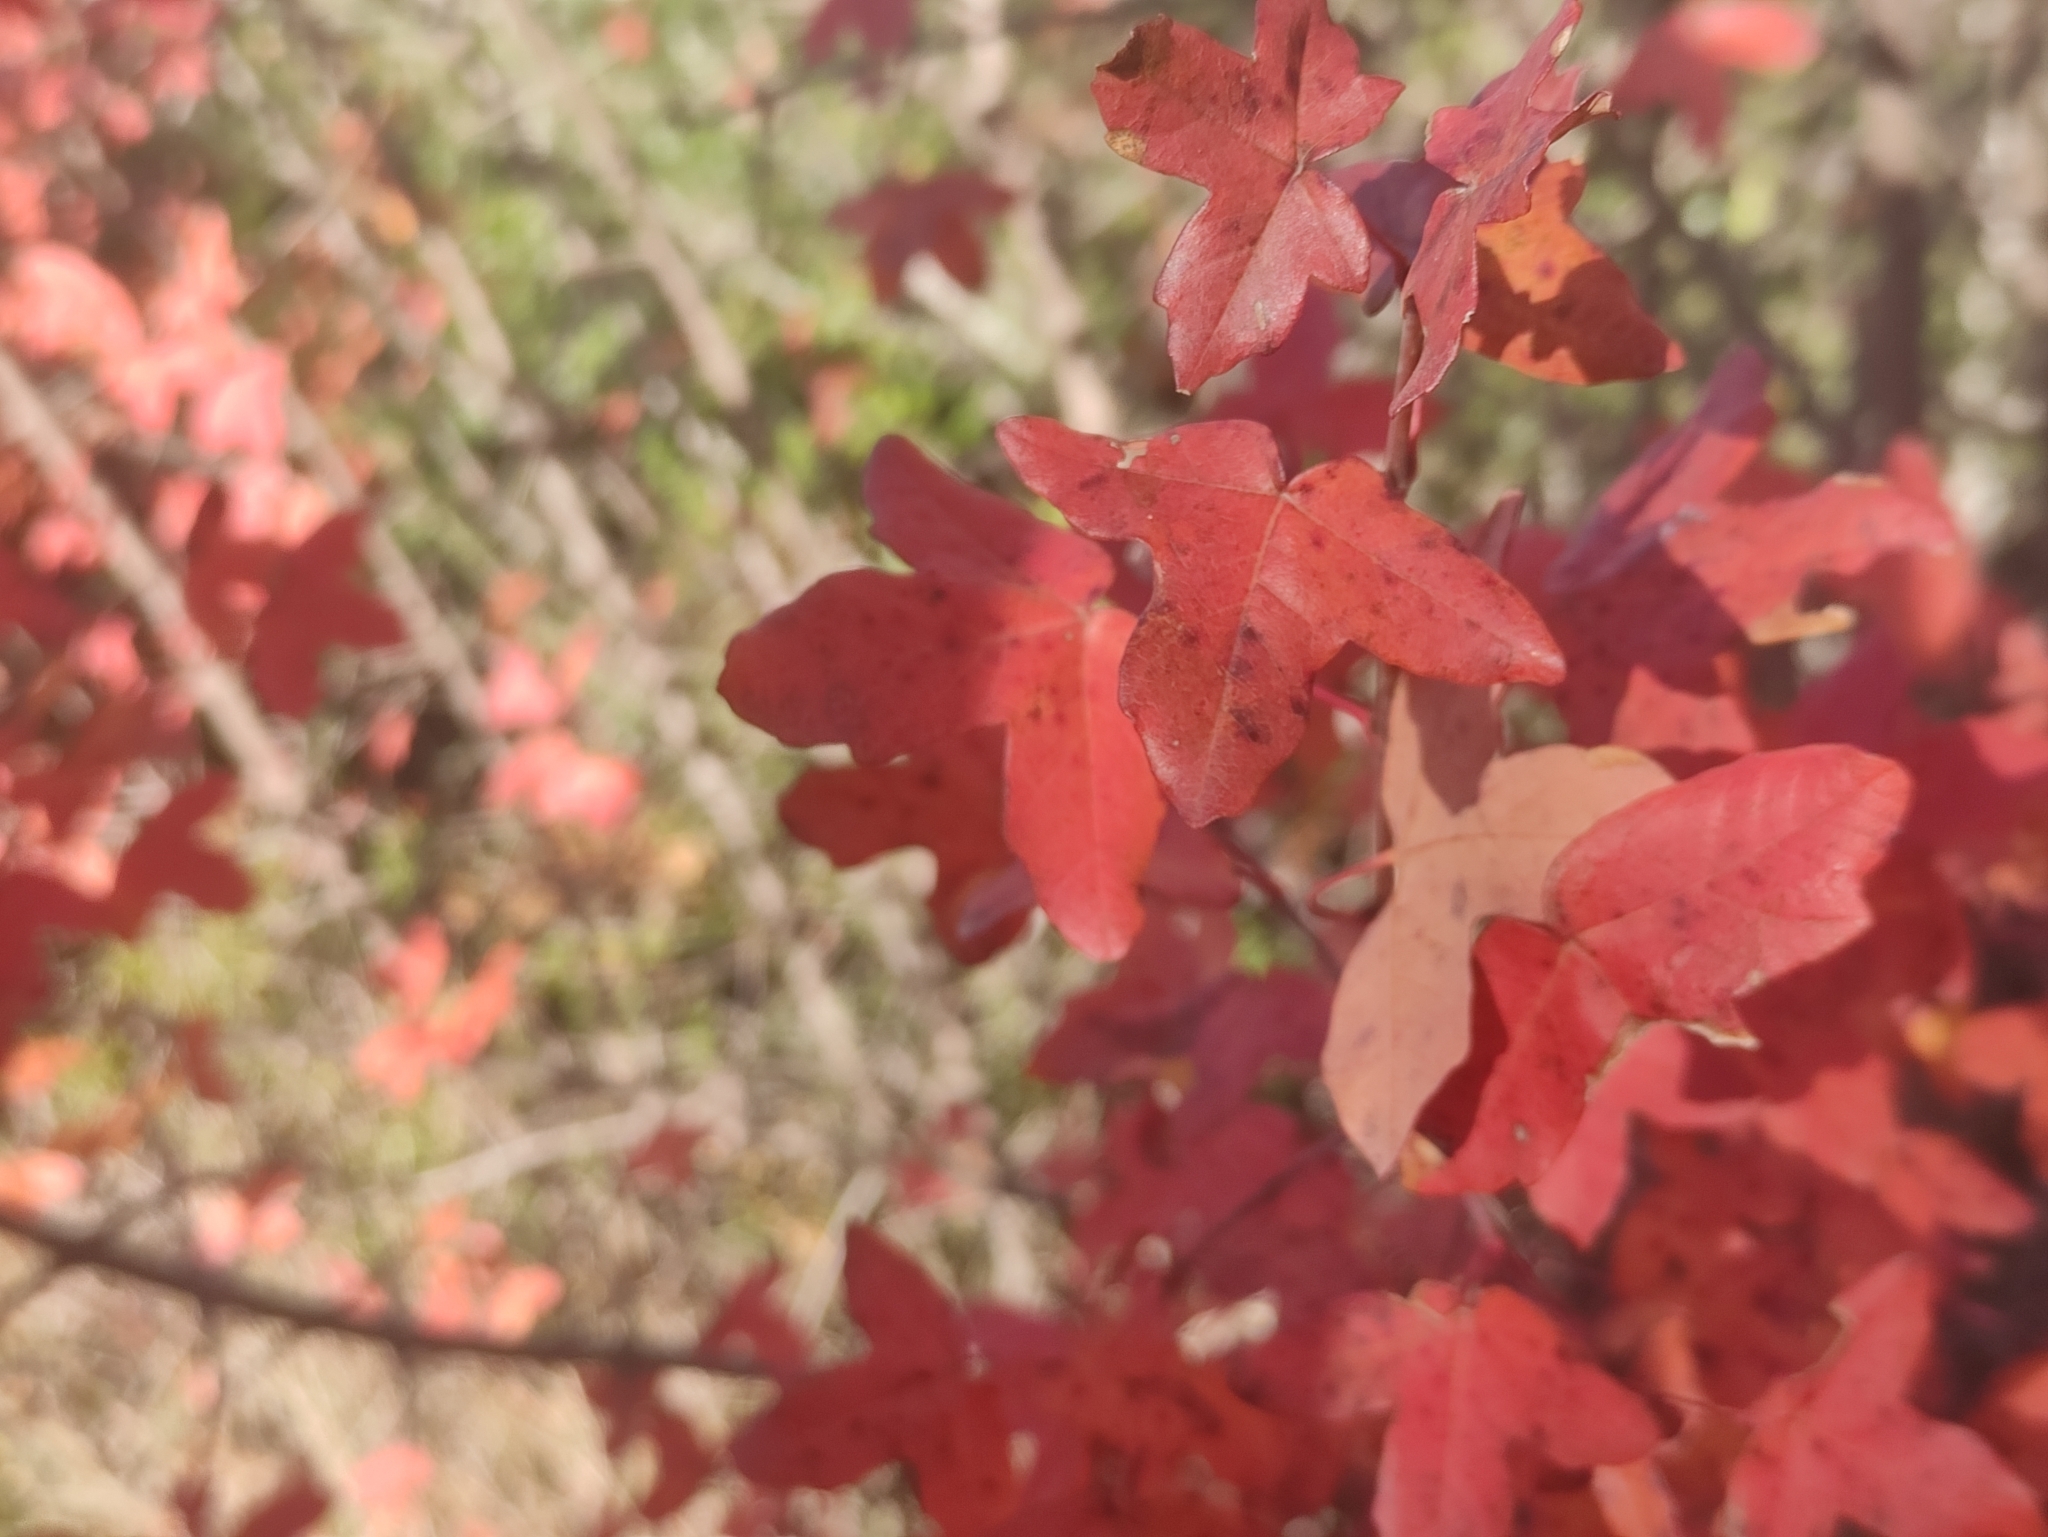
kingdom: Plantae
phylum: Tracheophyta
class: Magnoliopsida
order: Sapindales
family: Sapindaceae
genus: Acer
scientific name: Acer monspessulanum
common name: Montpellier maple
